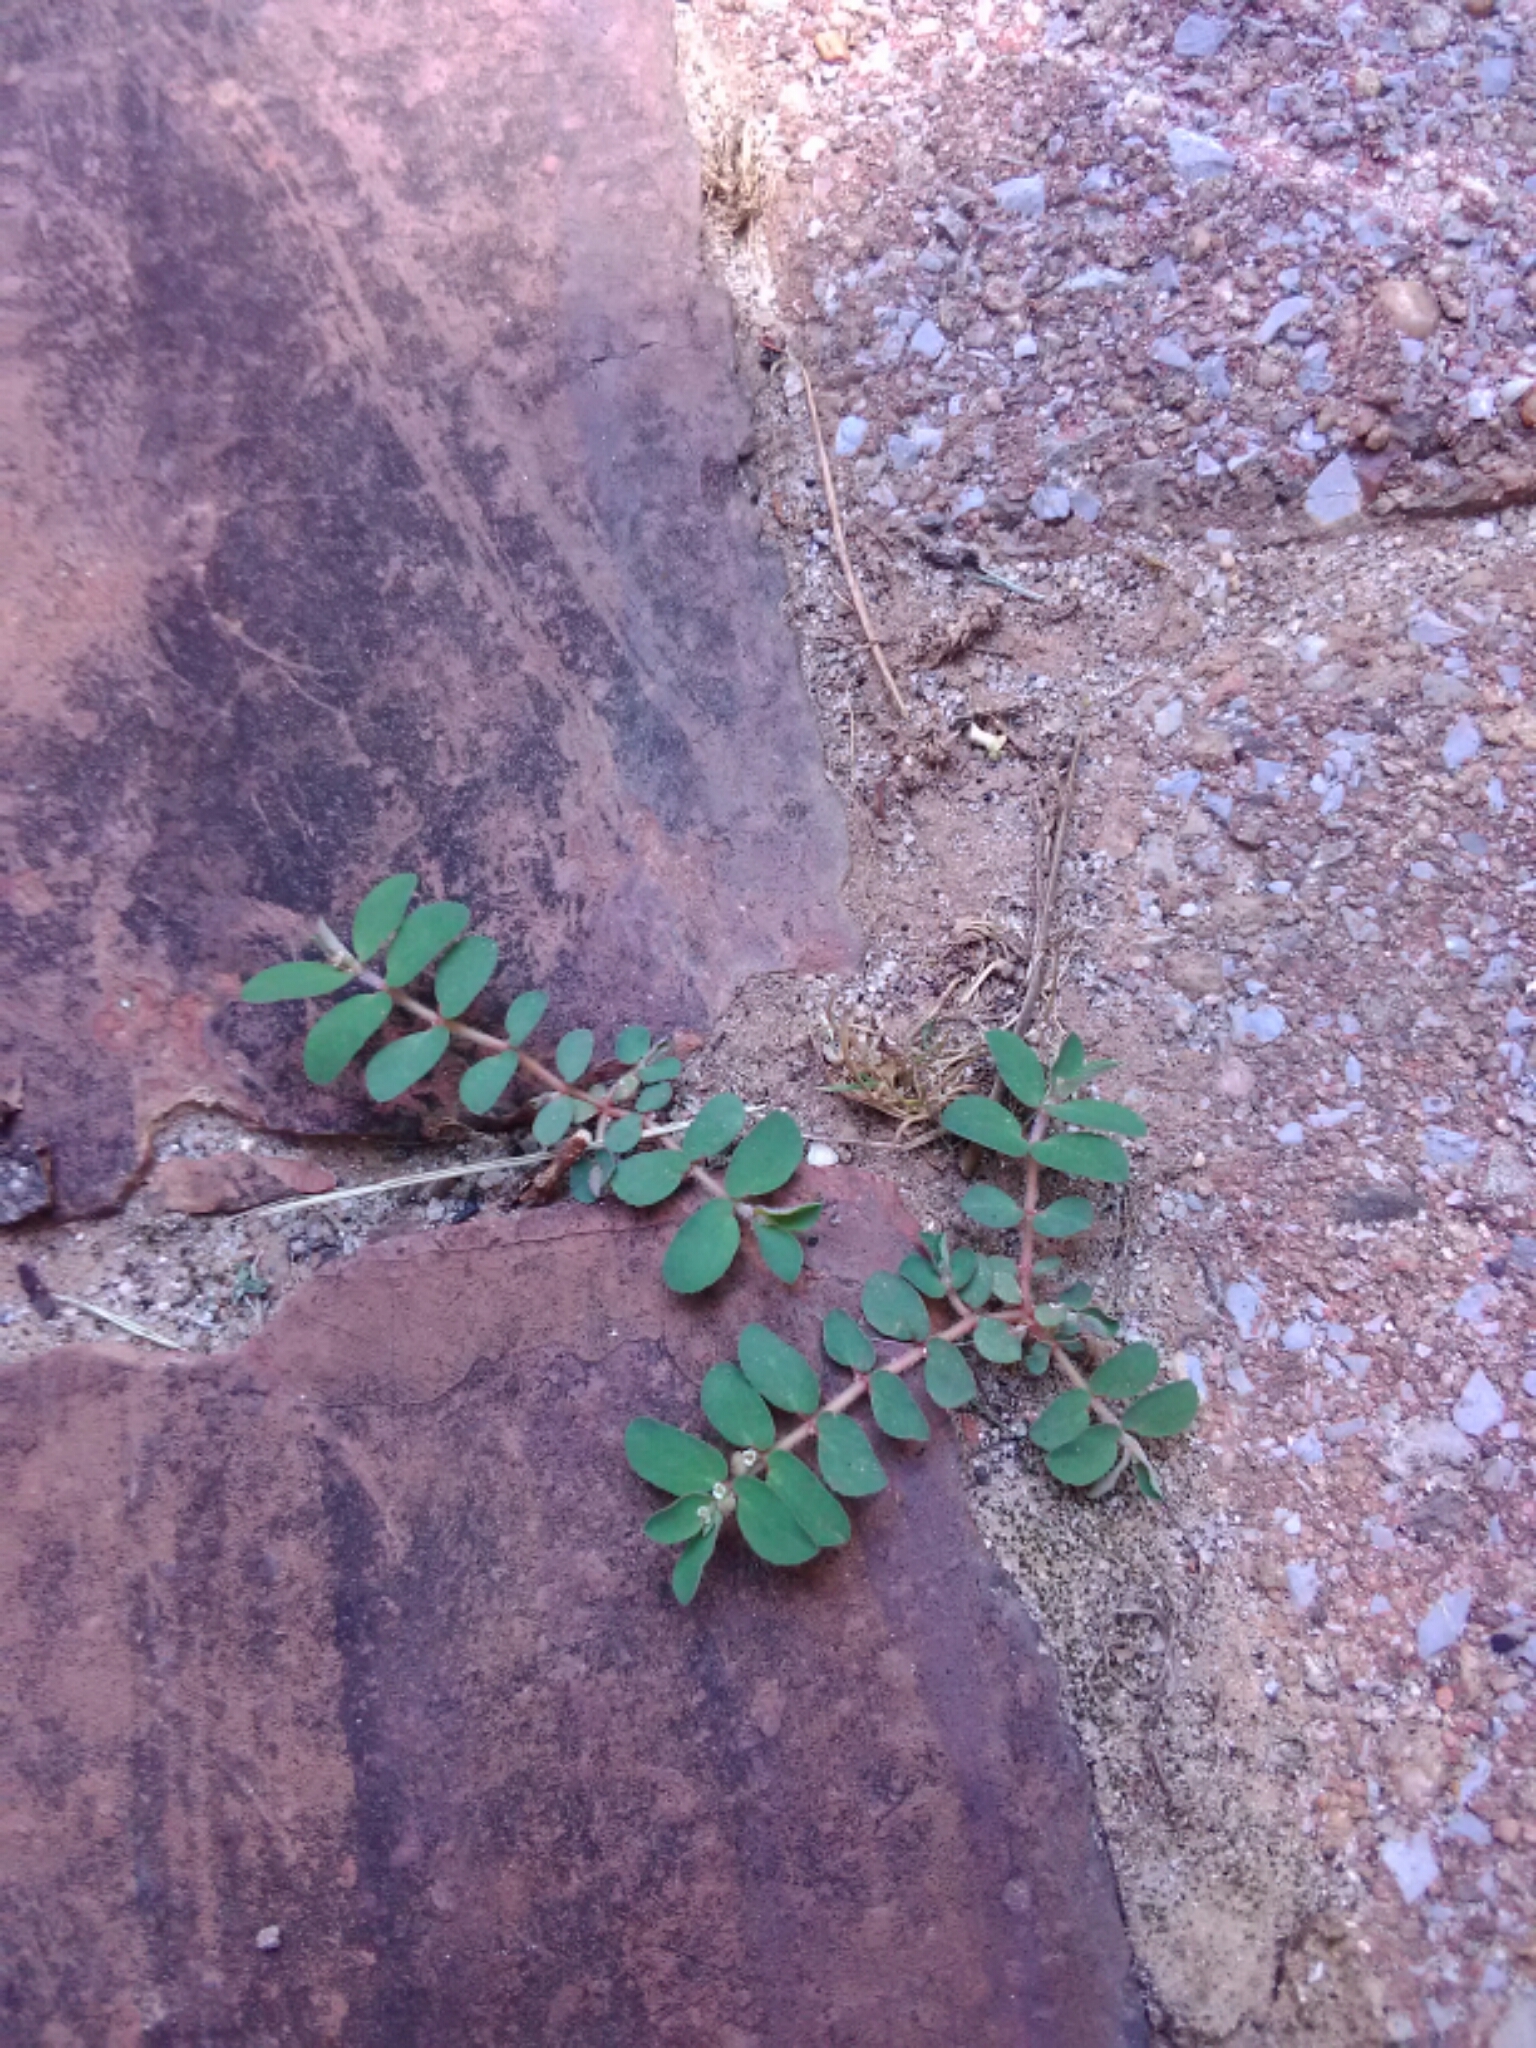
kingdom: Plantae
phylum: Tracheophyta
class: Magnoliopsida
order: Malpighiales
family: Euphorbiaceae
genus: Euphorbia
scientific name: Euphorbia maculata
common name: Spotted spurge
